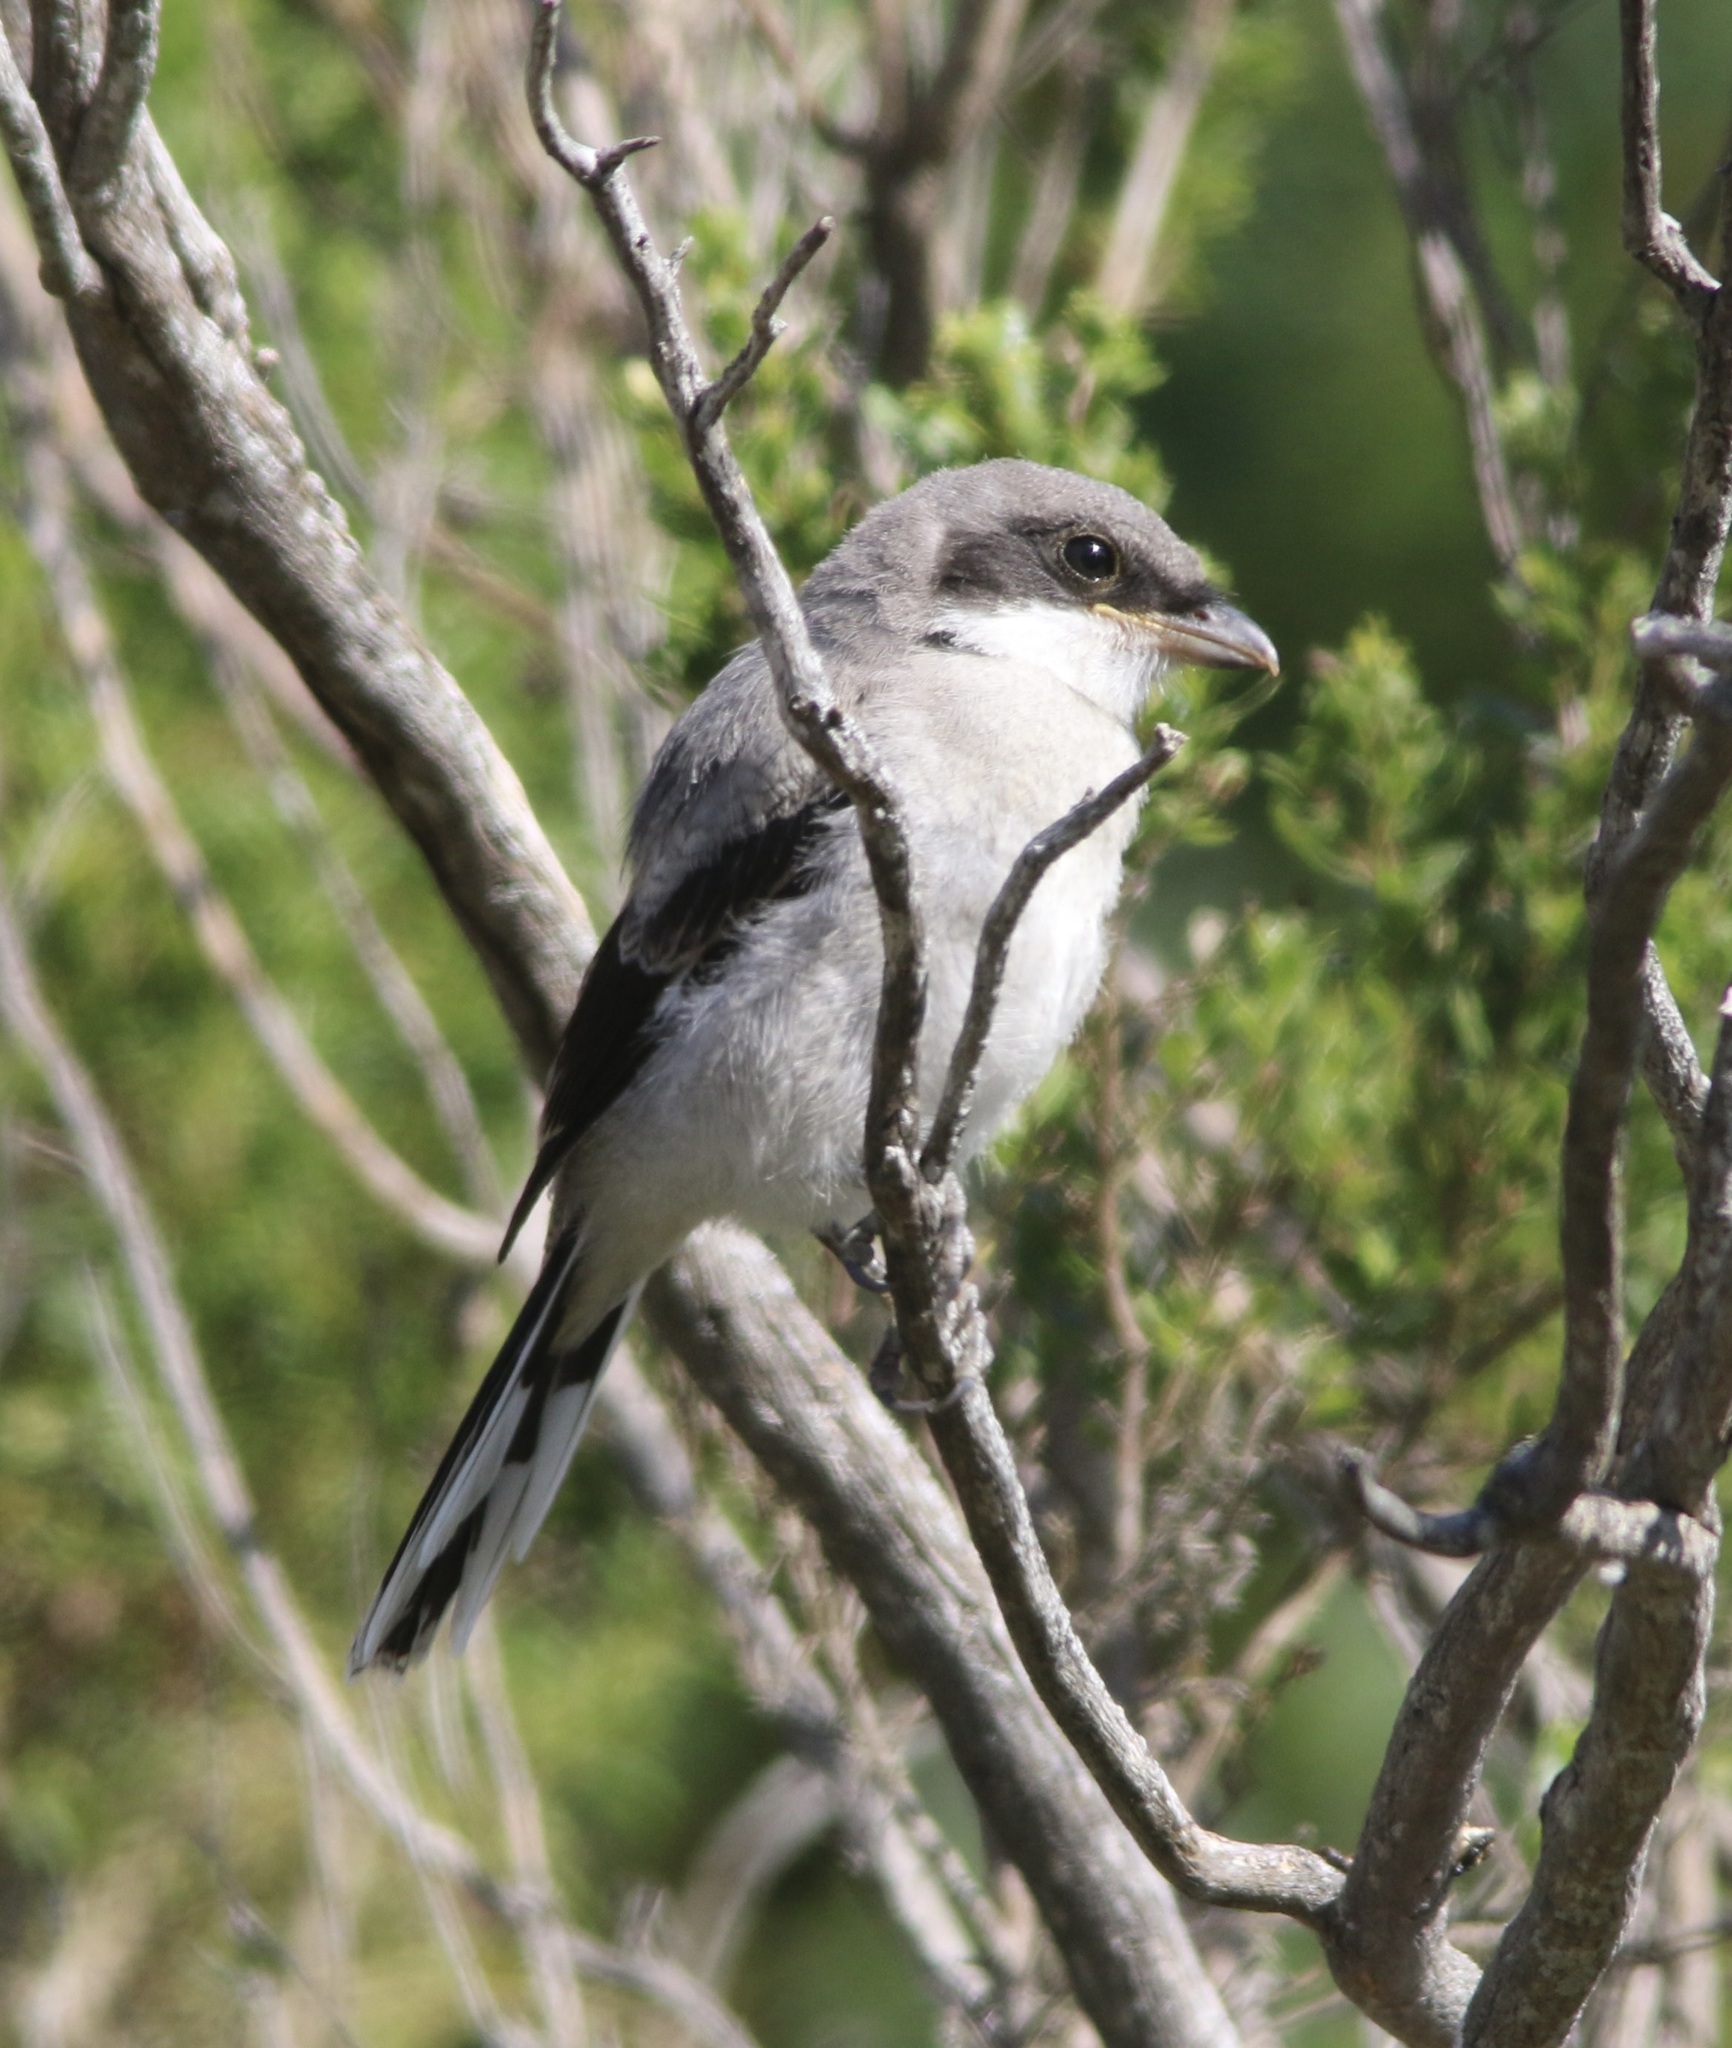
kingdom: Animalia
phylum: Chordata
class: Aves
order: Passeriformes
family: Laniidae
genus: Lanius
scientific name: Lanius ludovicianus
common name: Loggerhead shrike
